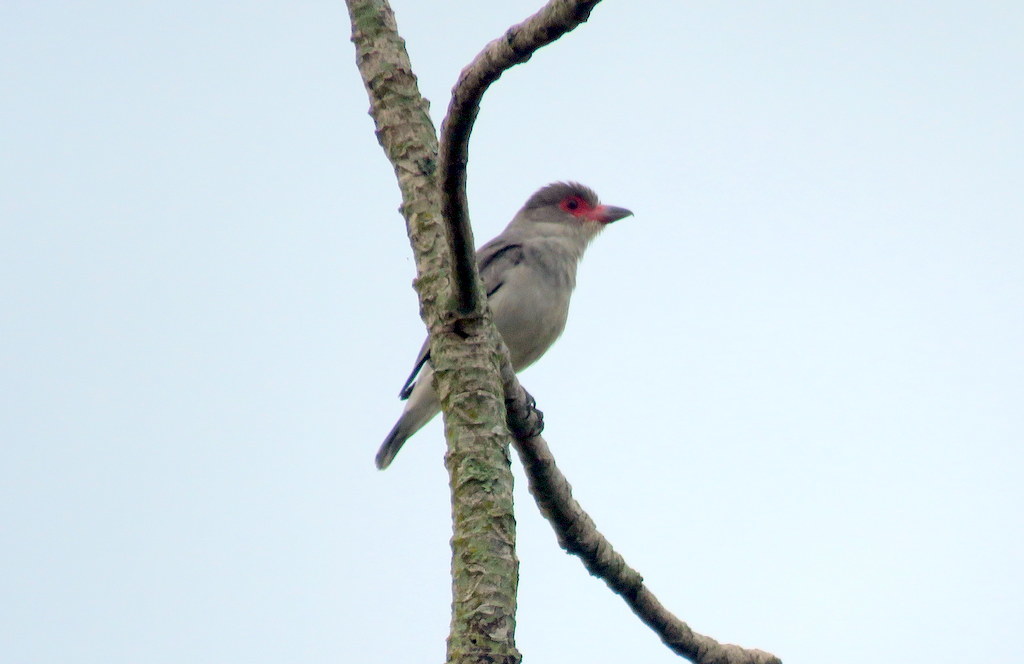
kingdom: Animalia
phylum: Chordata
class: Aves
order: Passeriformes
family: Cotingidae
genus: Tityra
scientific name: Tityra semifasciata
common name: Masked tityra
